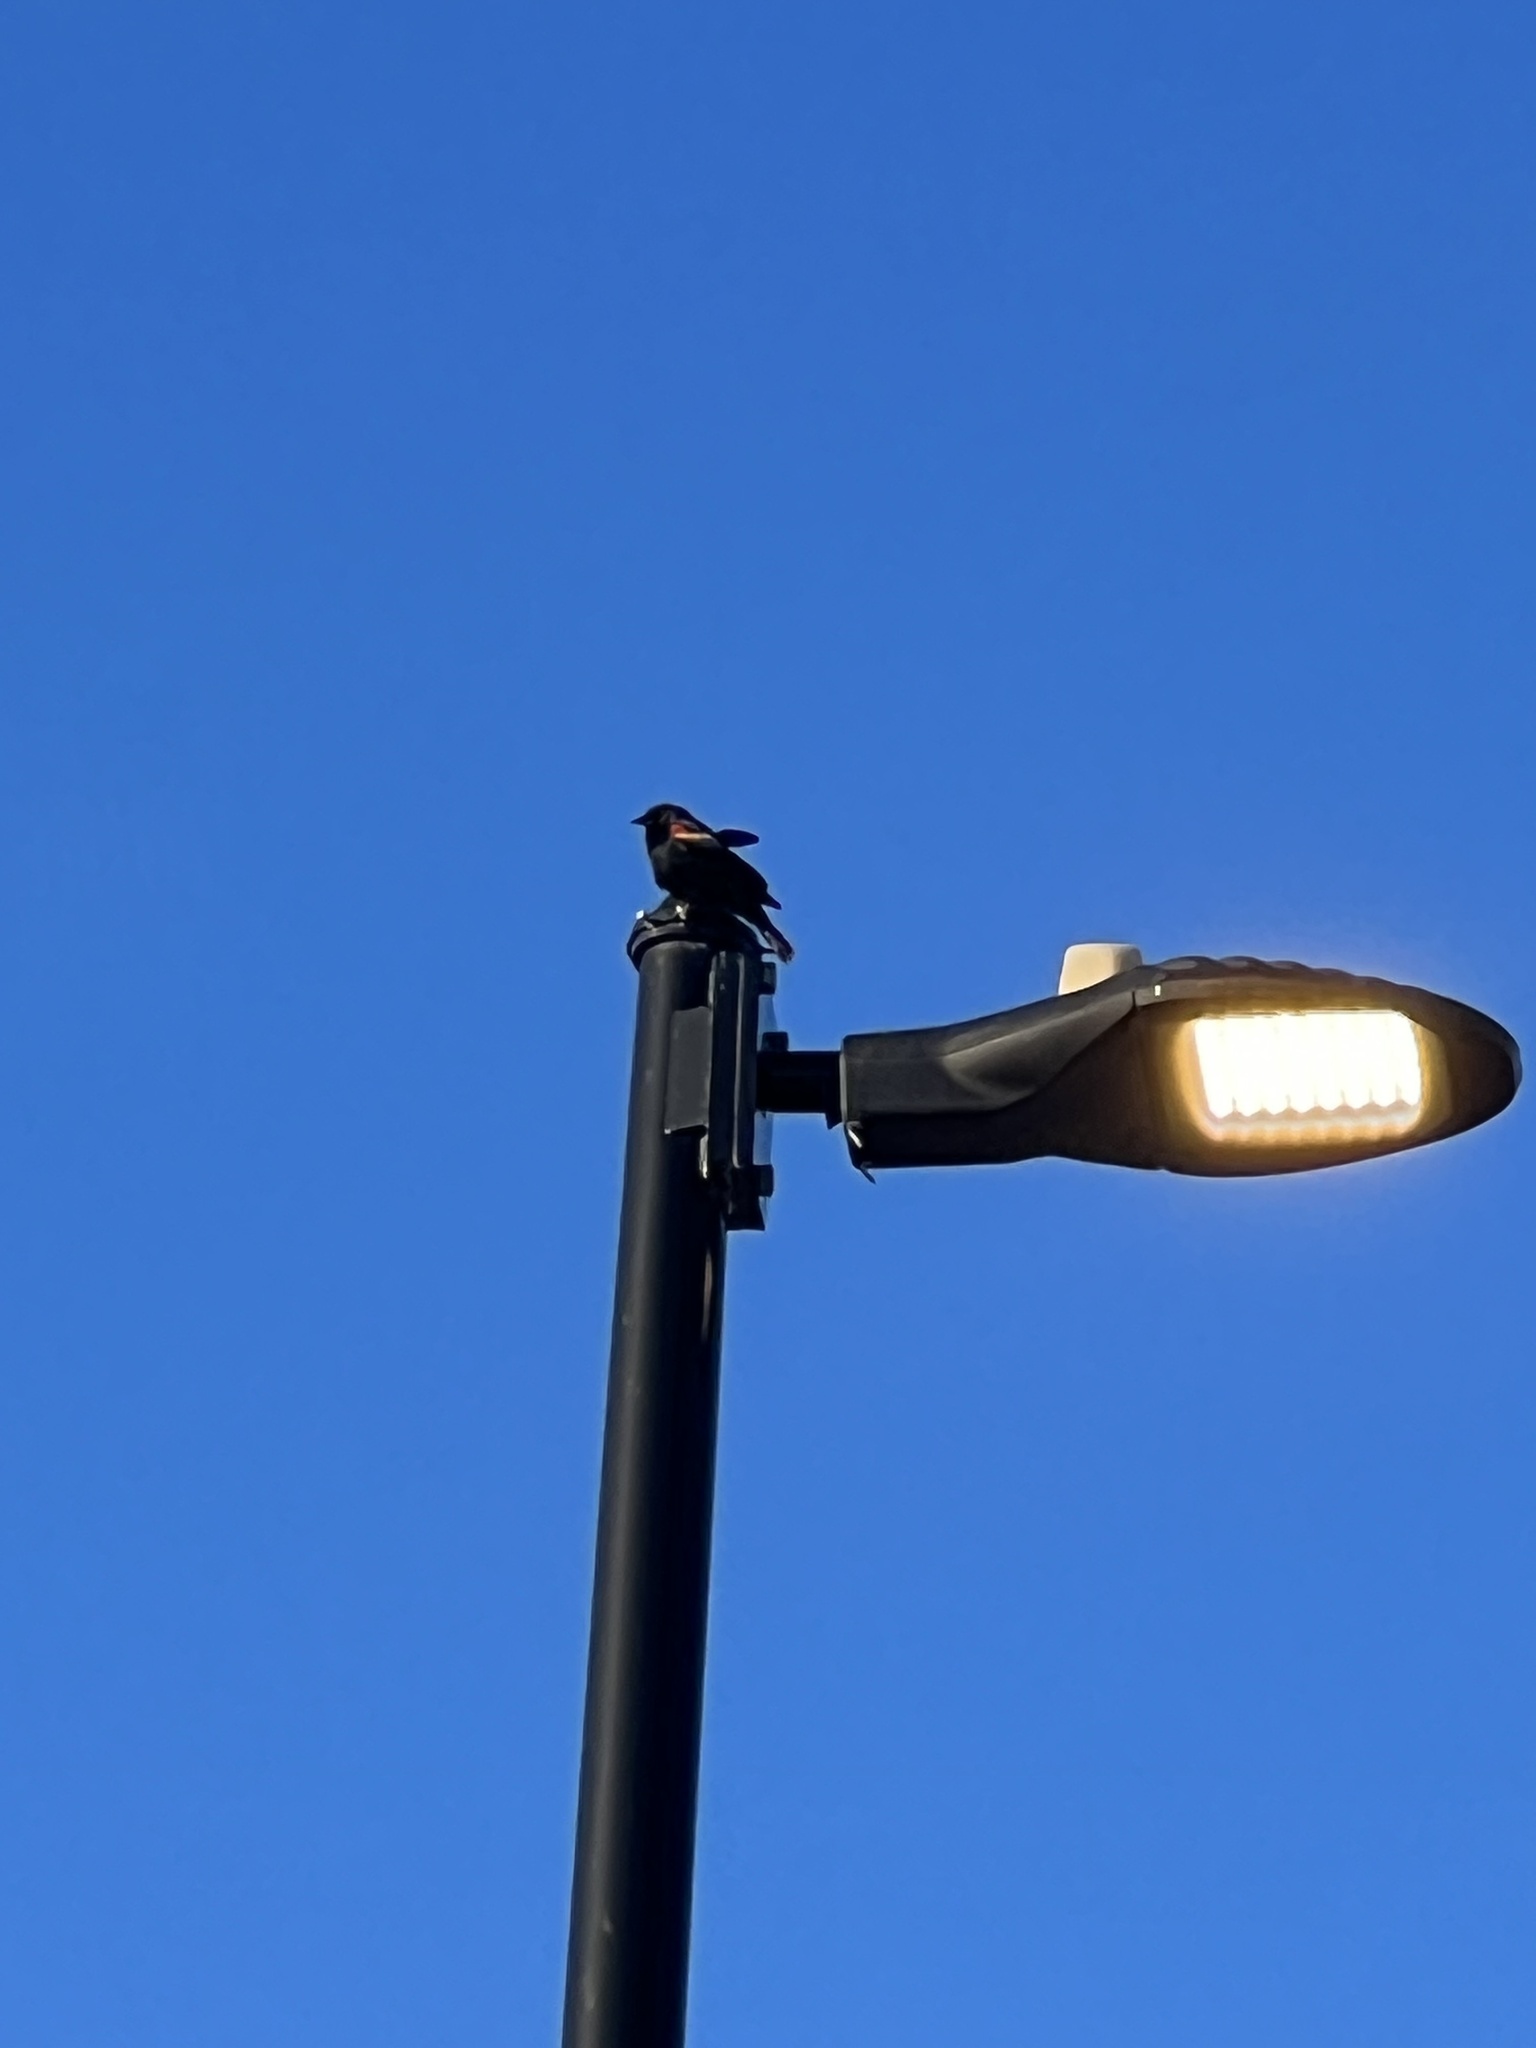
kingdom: Animalia
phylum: Chordata
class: Aves
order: Passeriformes
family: Icteridae
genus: Agelaius
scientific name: Agelaius phoeniceus
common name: Red-winged blackbird
